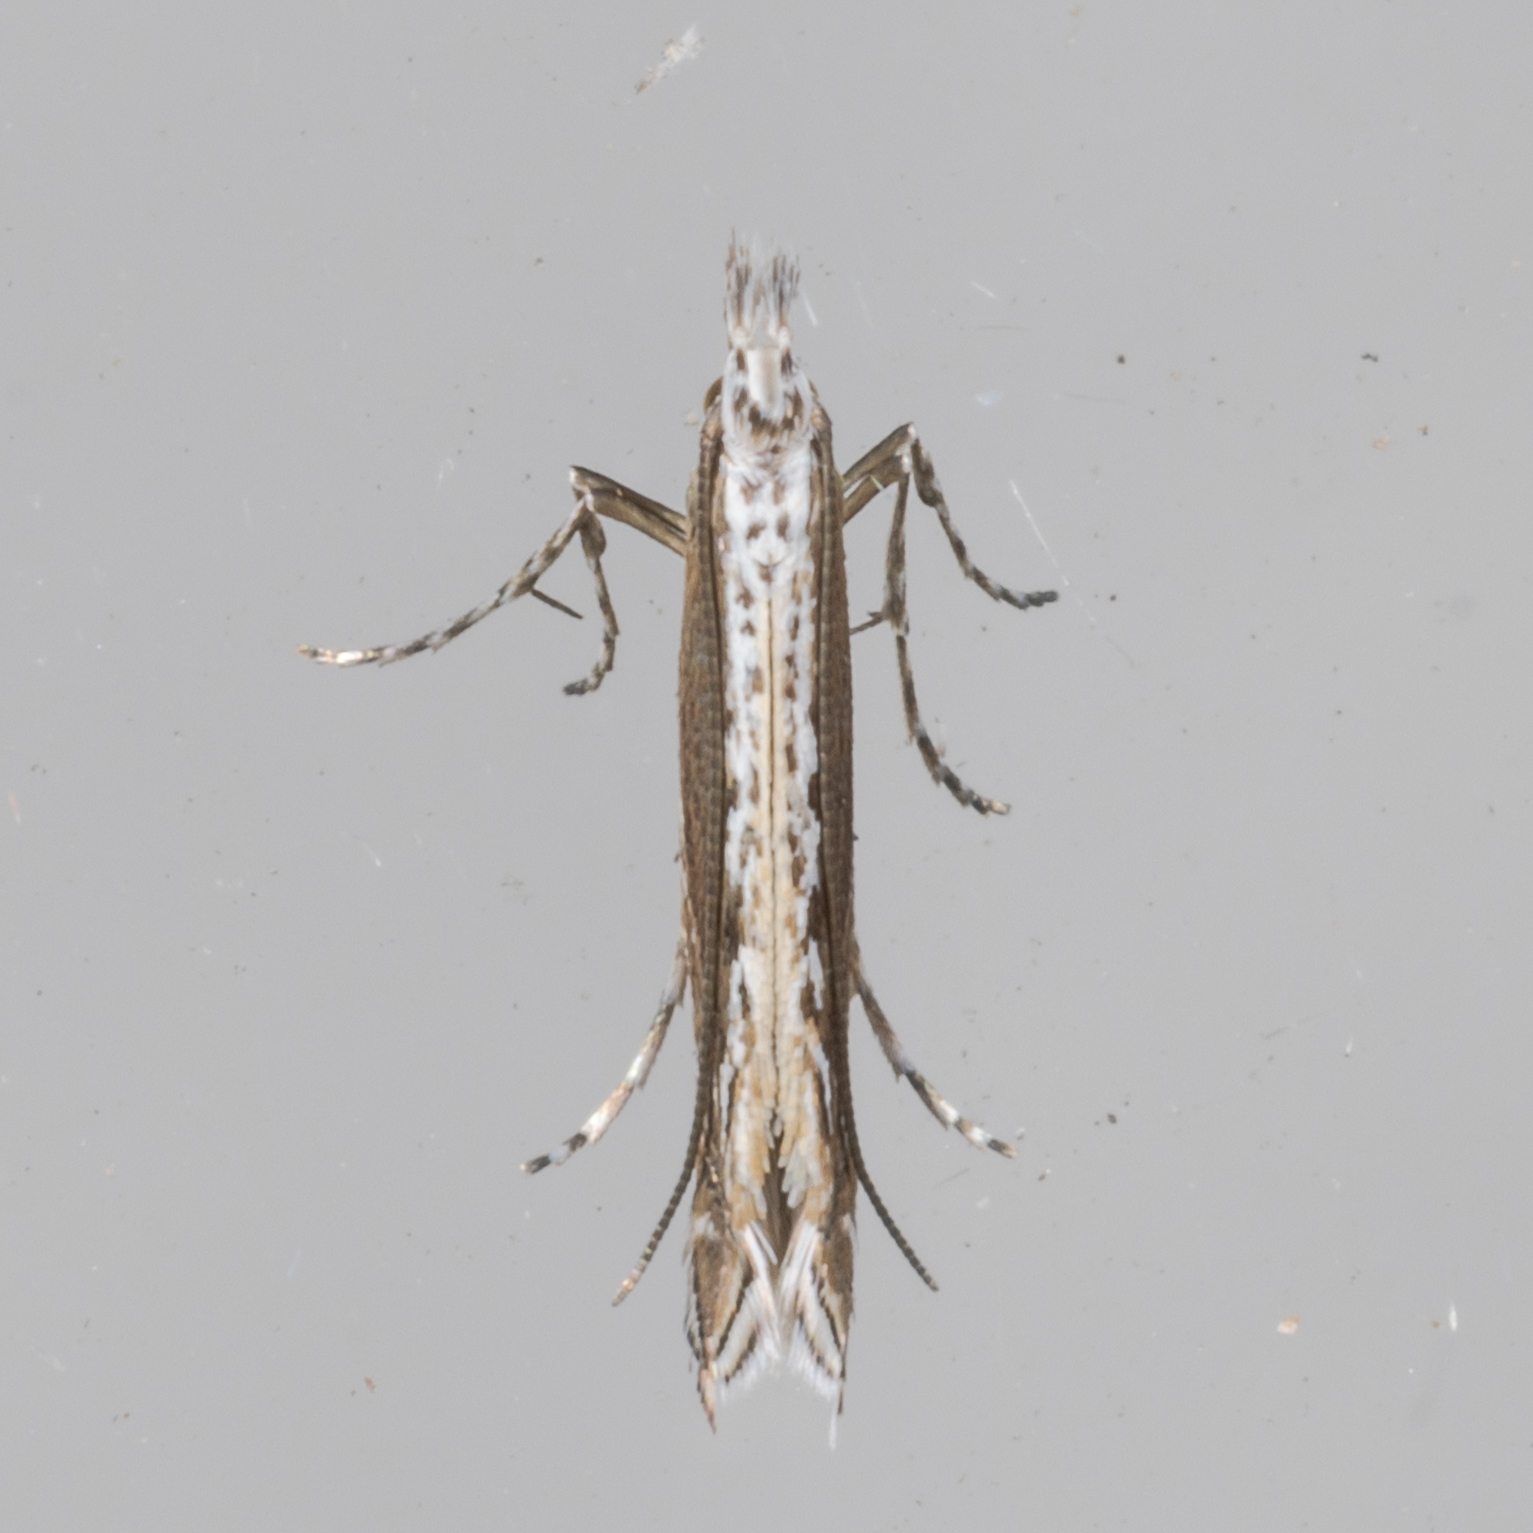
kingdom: Plantae
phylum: Rhodophyta
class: Florideophyceae
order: Gracilariales
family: Gracilariaceae
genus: Gracilaria
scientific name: Gracilaria
